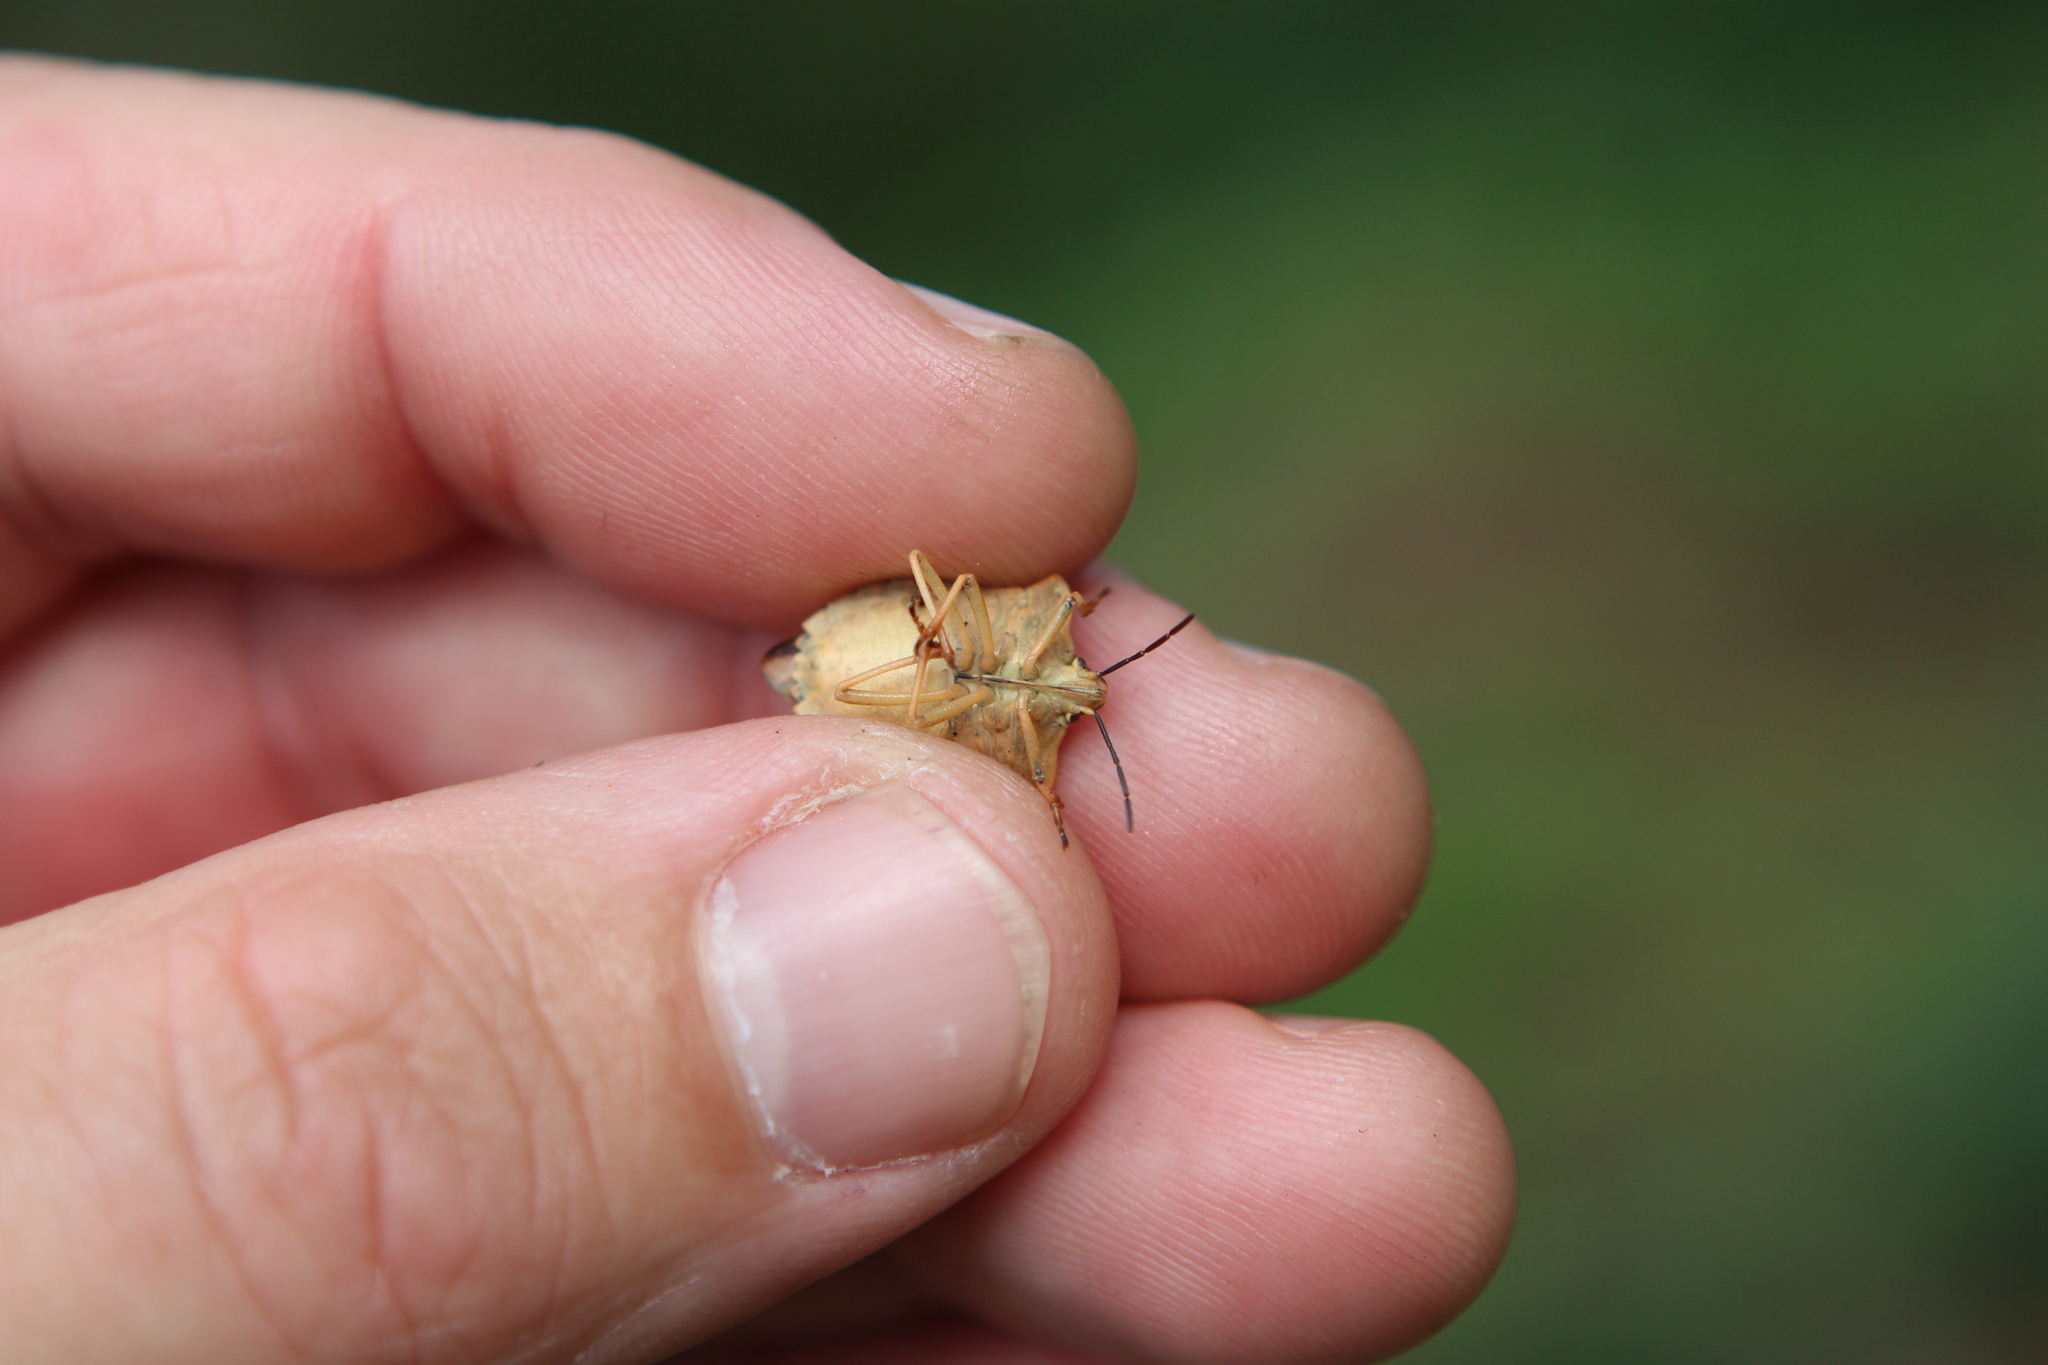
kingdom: Animalia
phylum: Arthropoda
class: Insecta
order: Hemiptera
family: Pentatomidae
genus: Carpocoris
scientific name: Carpocoris fuscispinus
